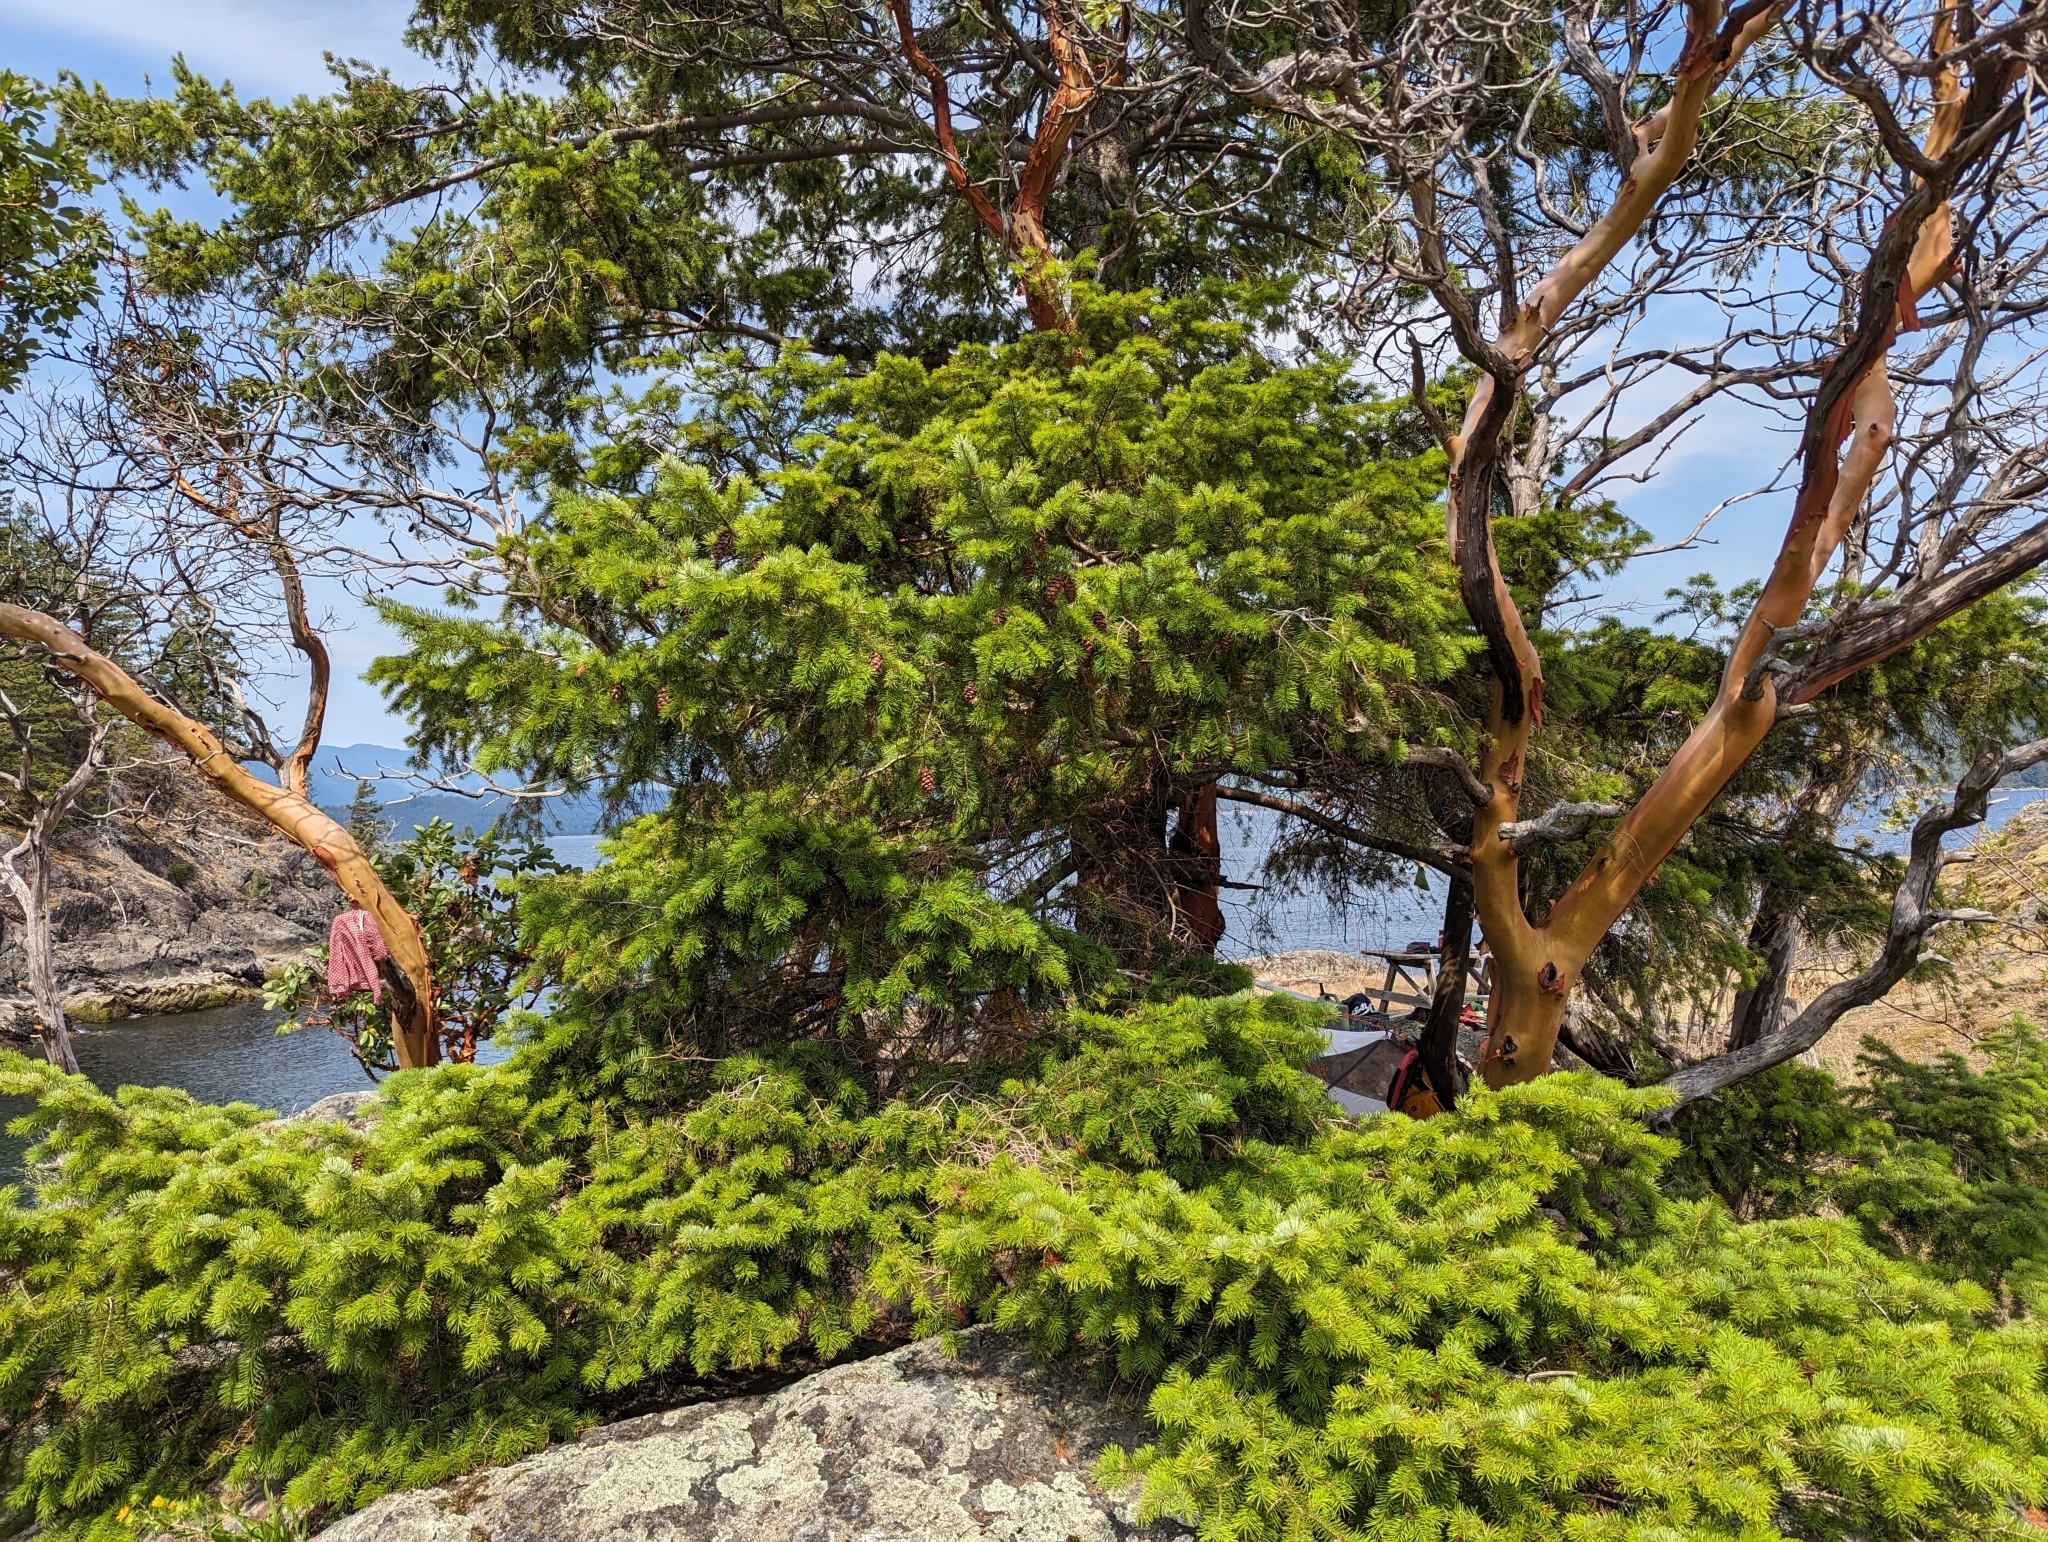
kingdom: Plantae
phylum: Tracheophyta
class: Pinopsida
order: Pinales
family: Pinaceae
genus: Pseudotsuga
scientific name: Pseudotsuga menziesii
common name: Douglas fir
